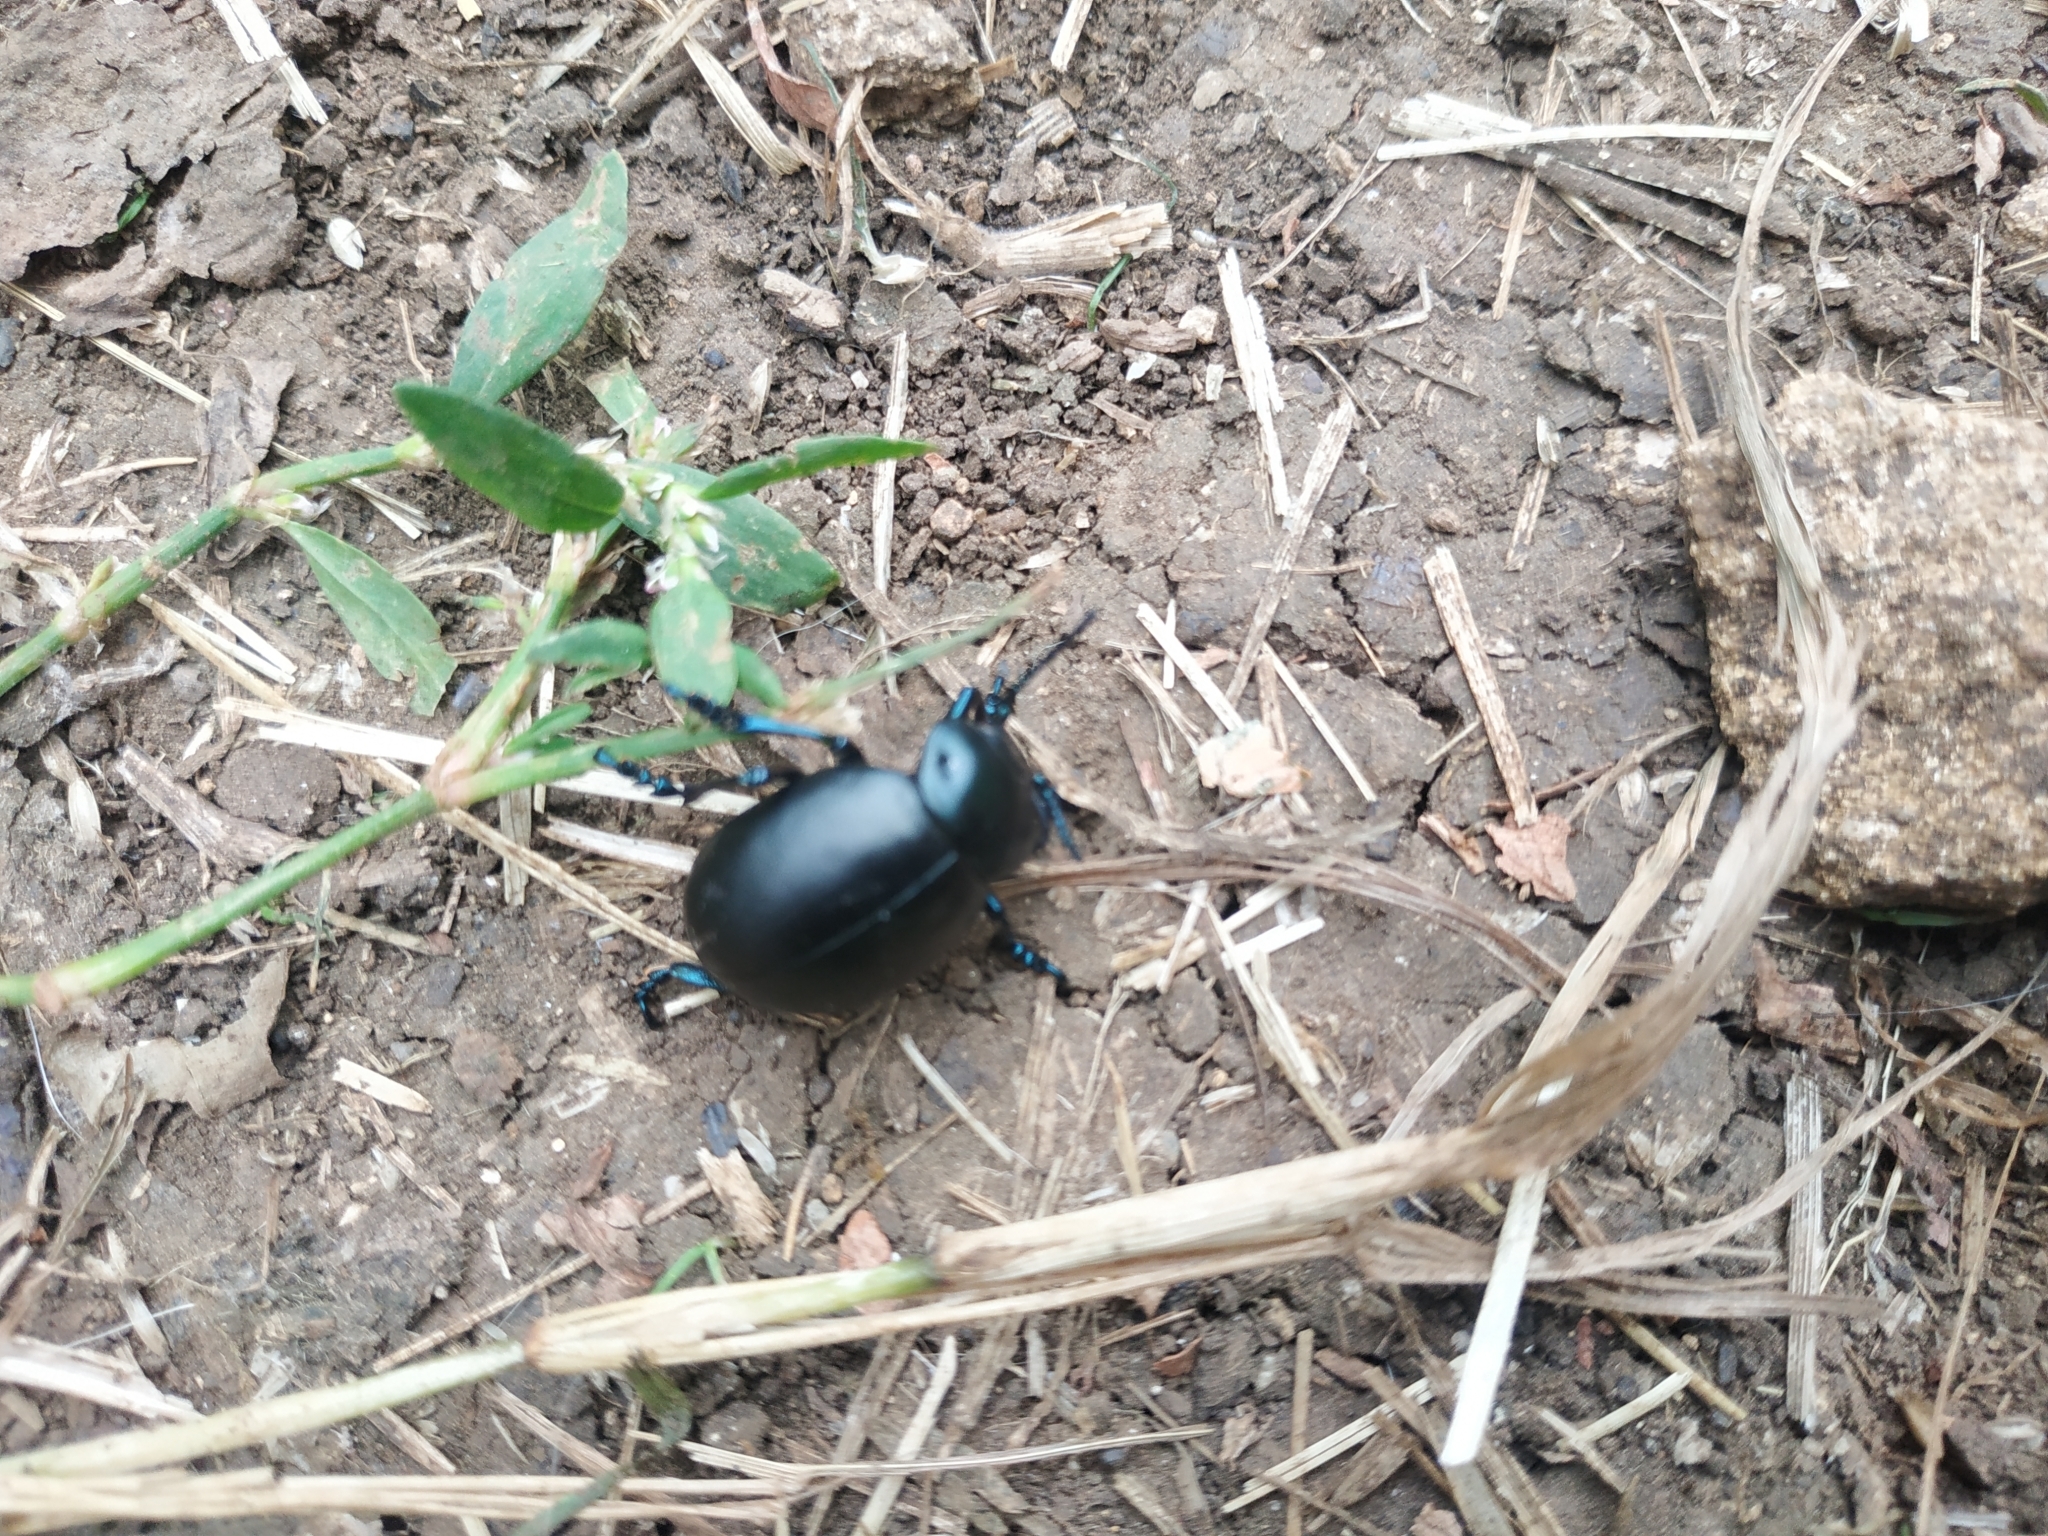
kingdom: Animalia
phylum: Arthropoda
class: Insecta
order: Coleoptera
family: Chrysomelidae
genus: Timarcha
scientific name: Timarcha tenebricosa
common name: Bloody-nosed beetle
